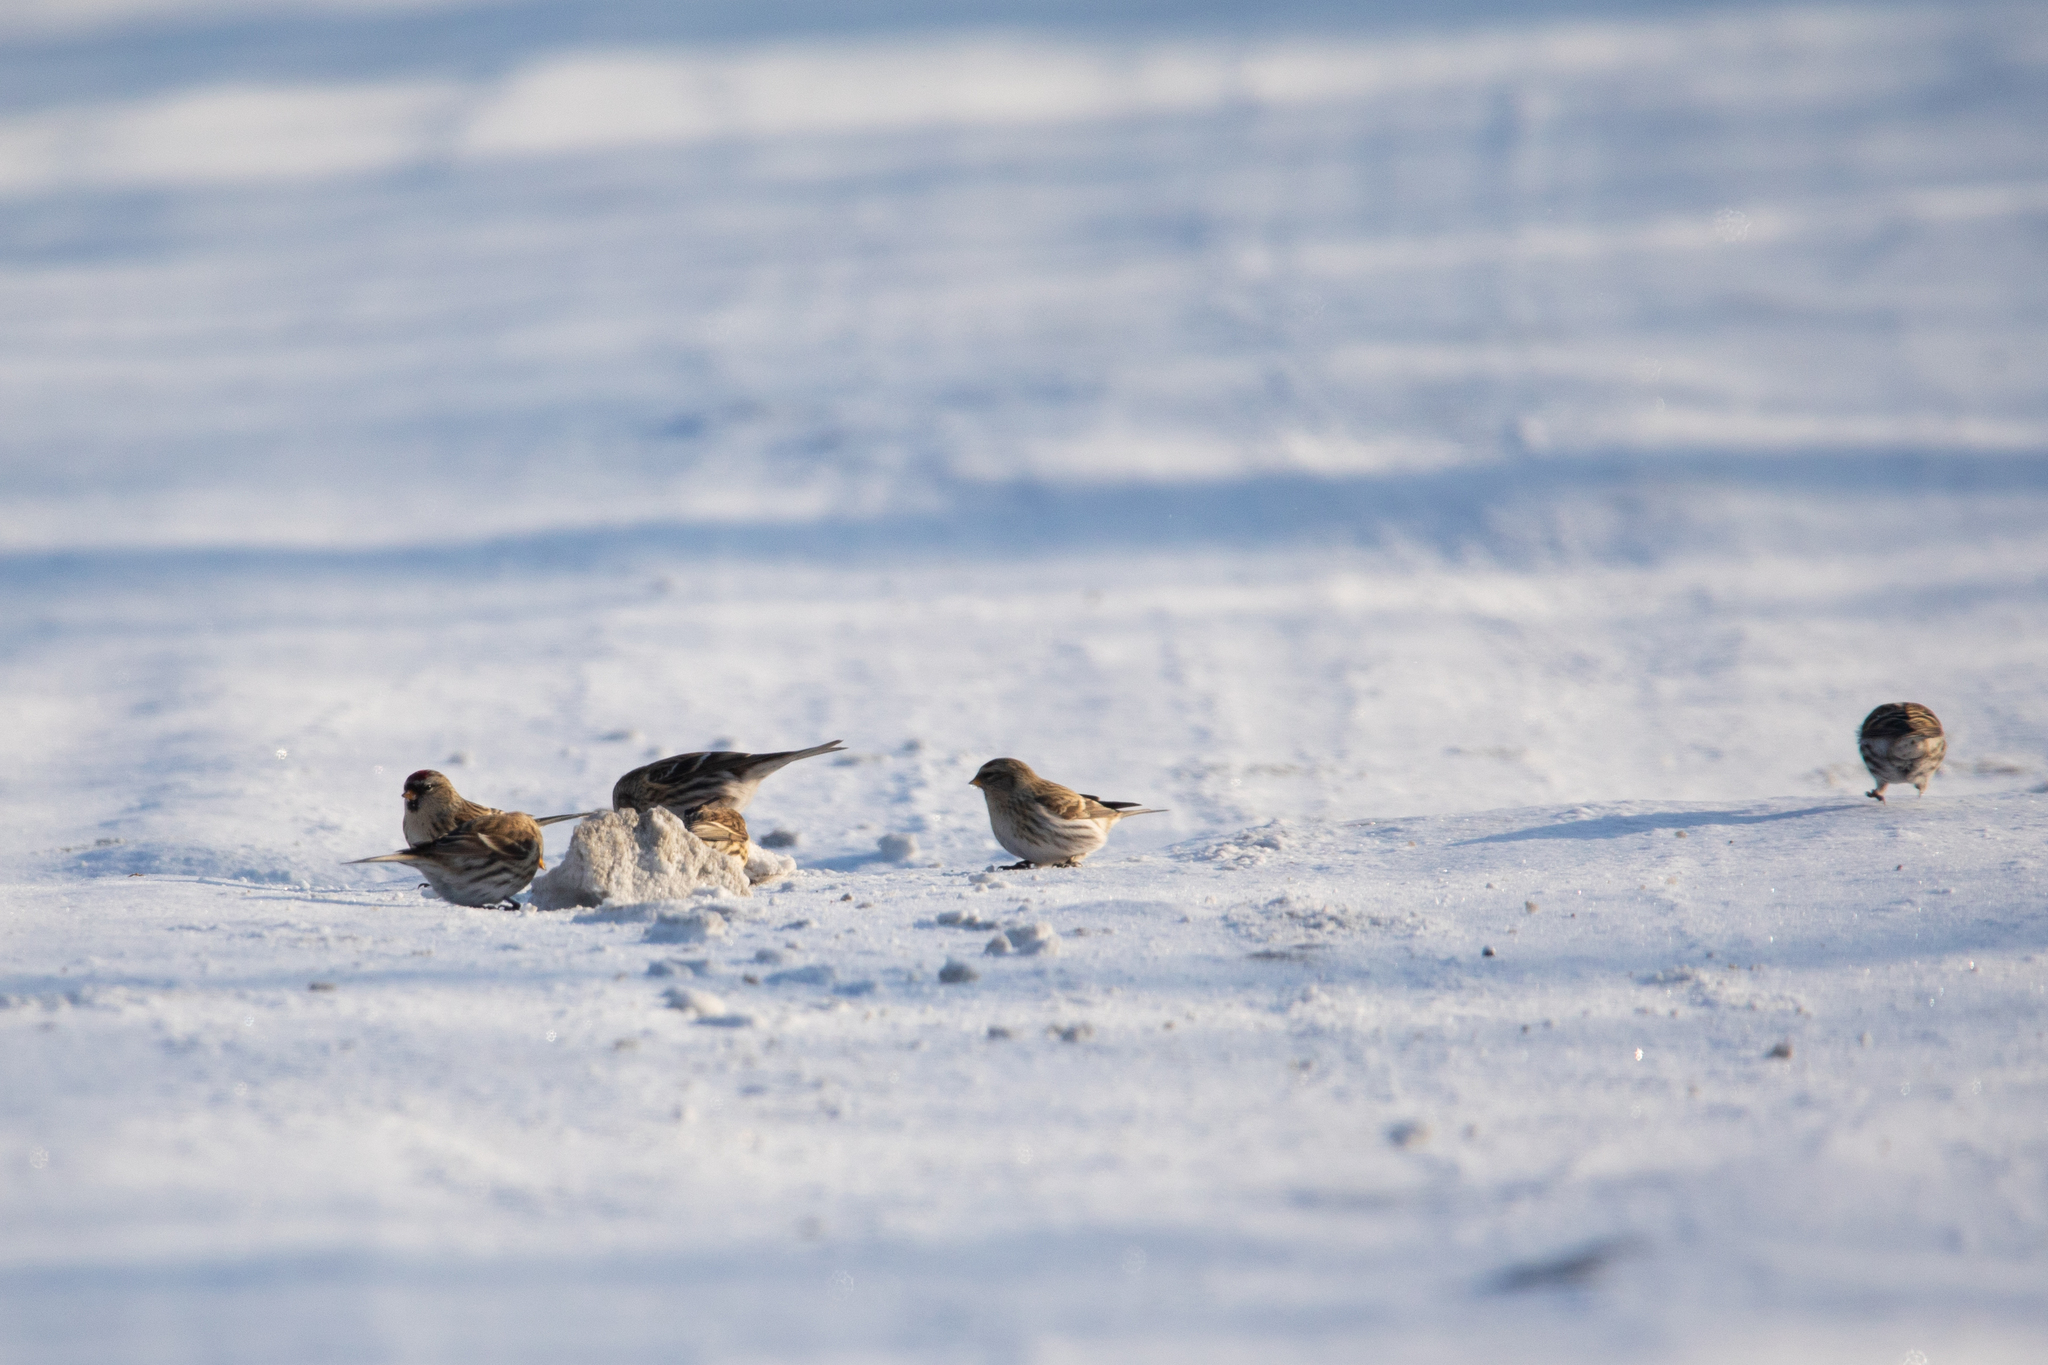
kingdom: Animalia
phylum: Chordata
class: Aves
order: Passeriformes
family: Fringillidae
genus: Acanthis
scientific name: Acanthis flammea
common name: Common redpoll
